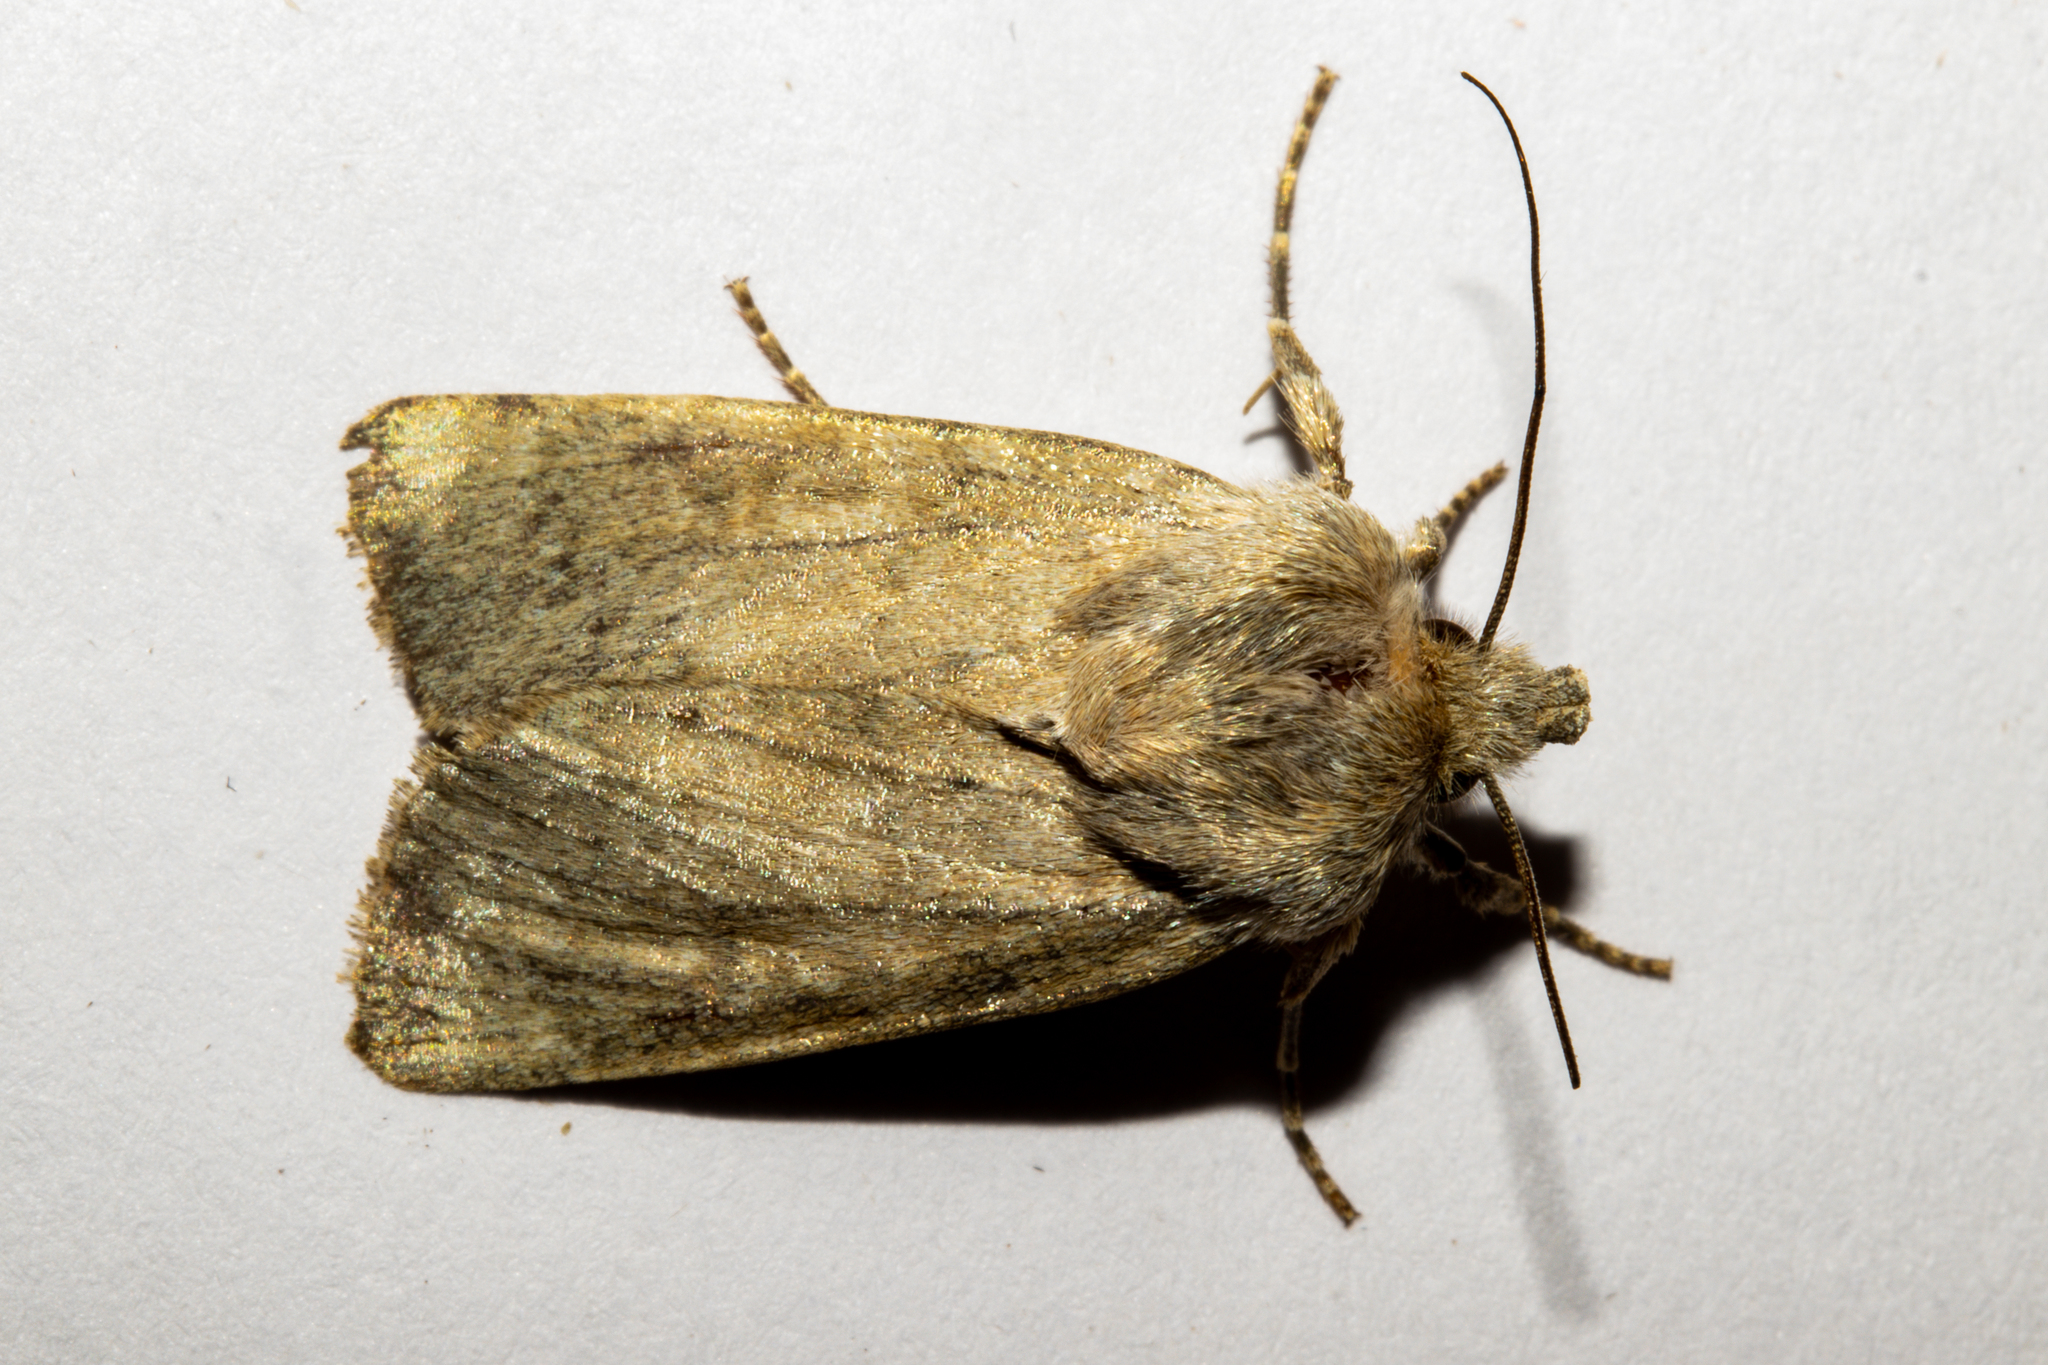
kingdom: Animalia
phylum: Arthropoda
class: Insecta
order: Lepidoptera
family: Noctuidae
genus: Physetica
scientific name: Physetica caerulea
